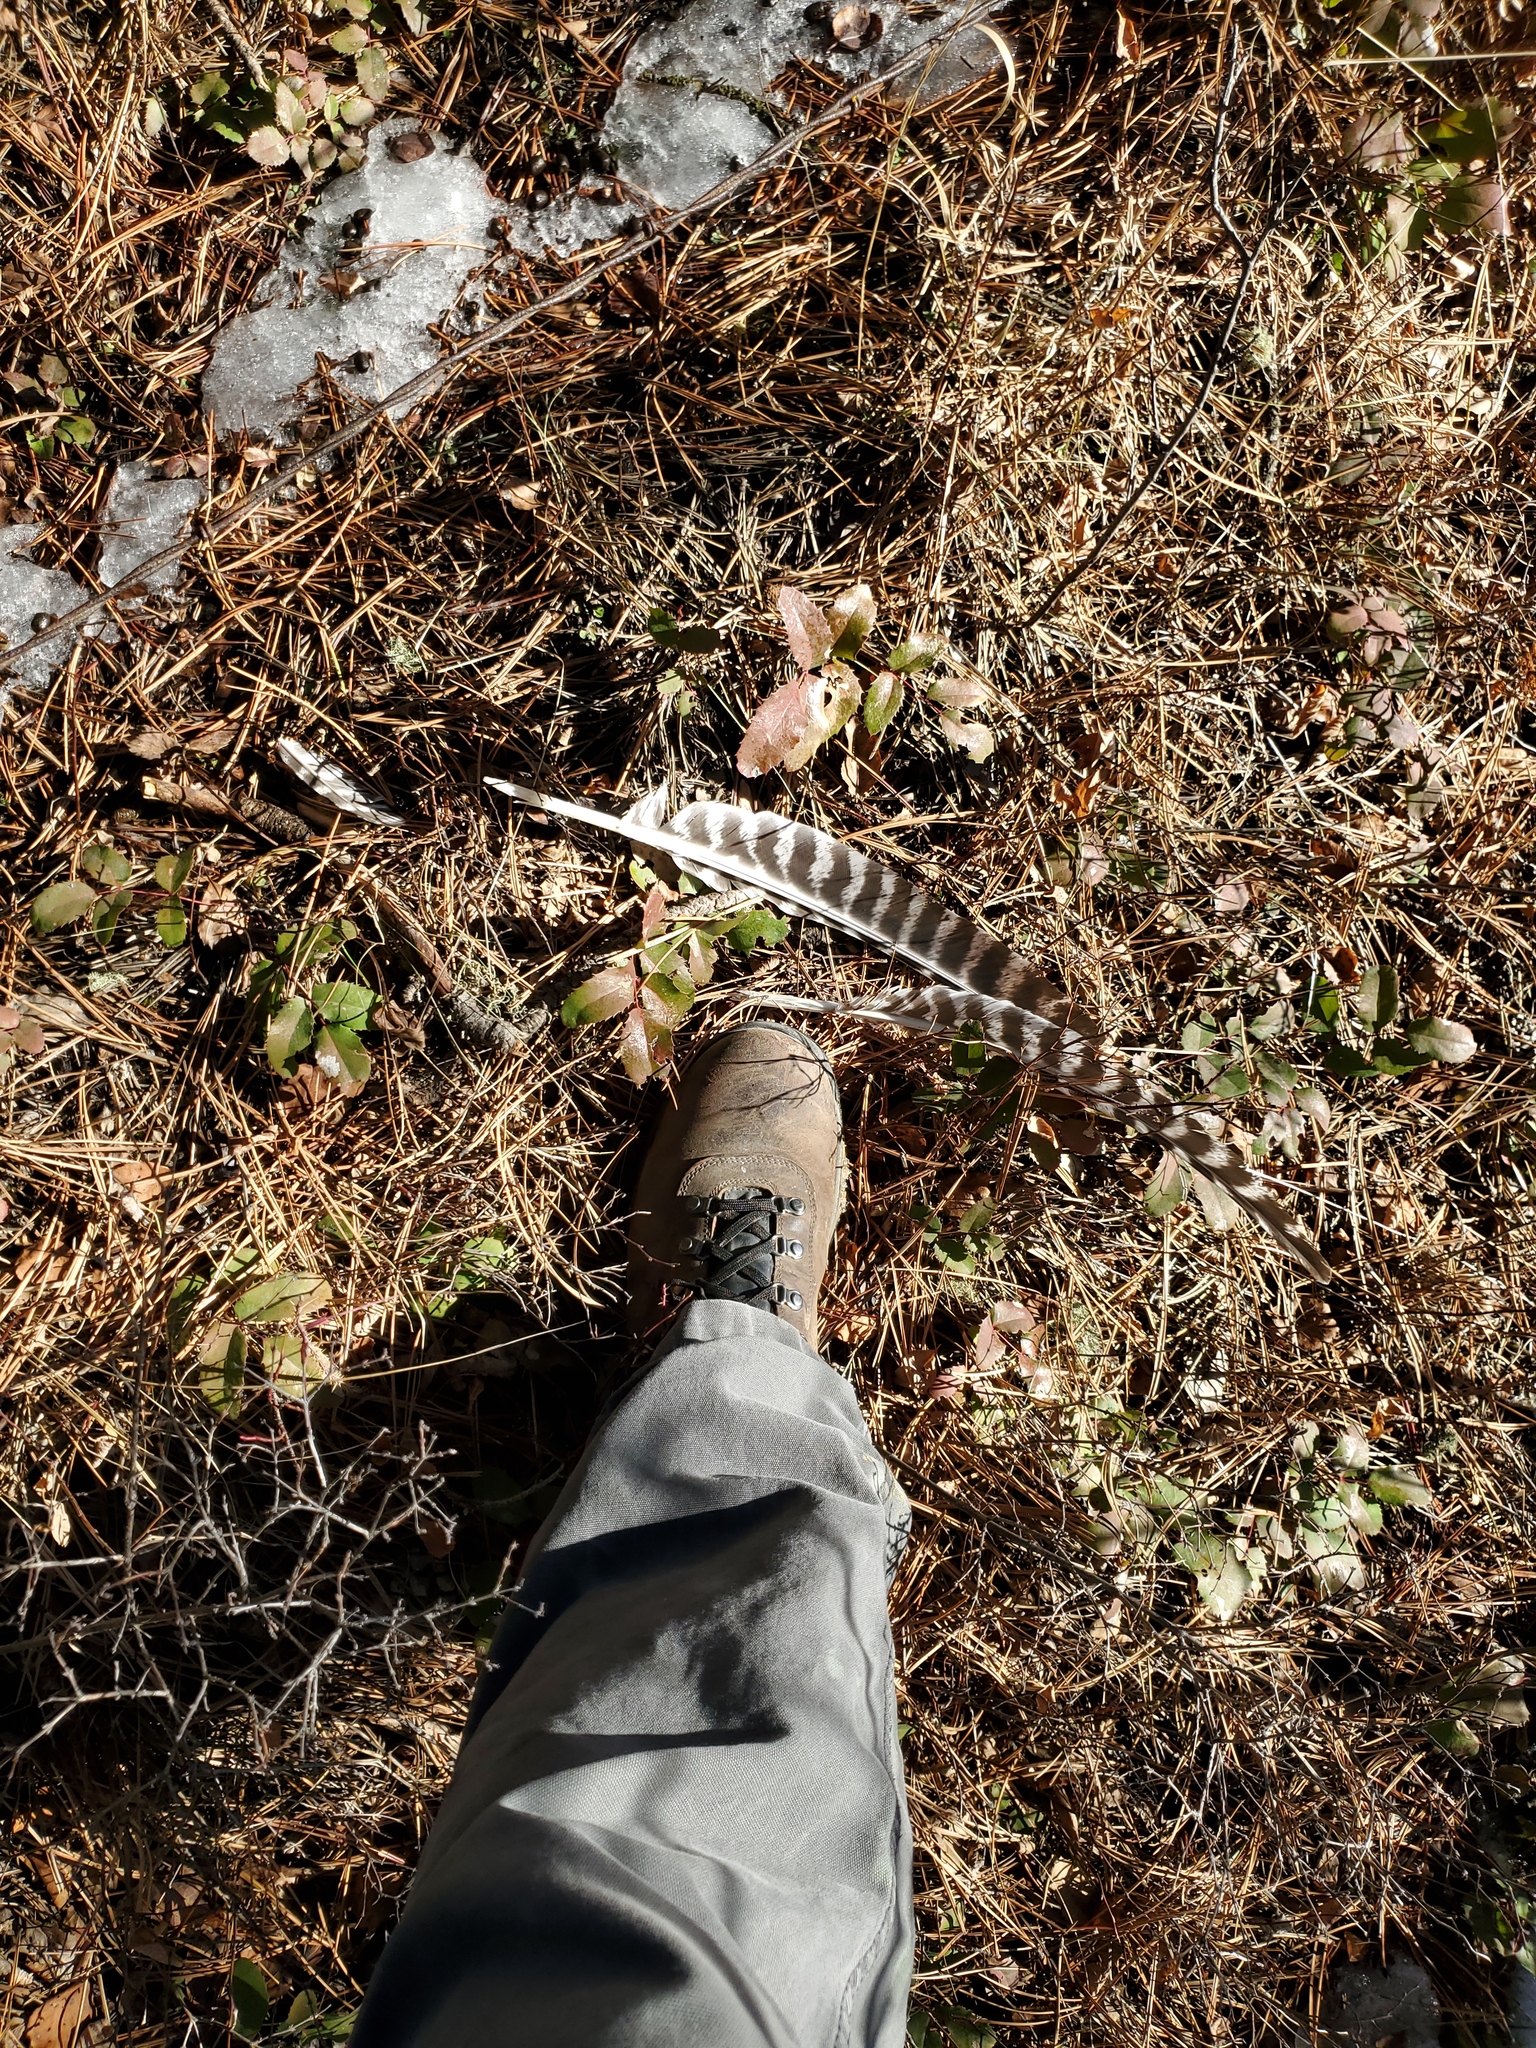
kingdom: Animalia
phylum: Chordata
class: Aves
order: Galliformes
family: Phasianidae
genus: Meleagris
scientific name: Meleagris gallopavo
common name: Wild turkey
